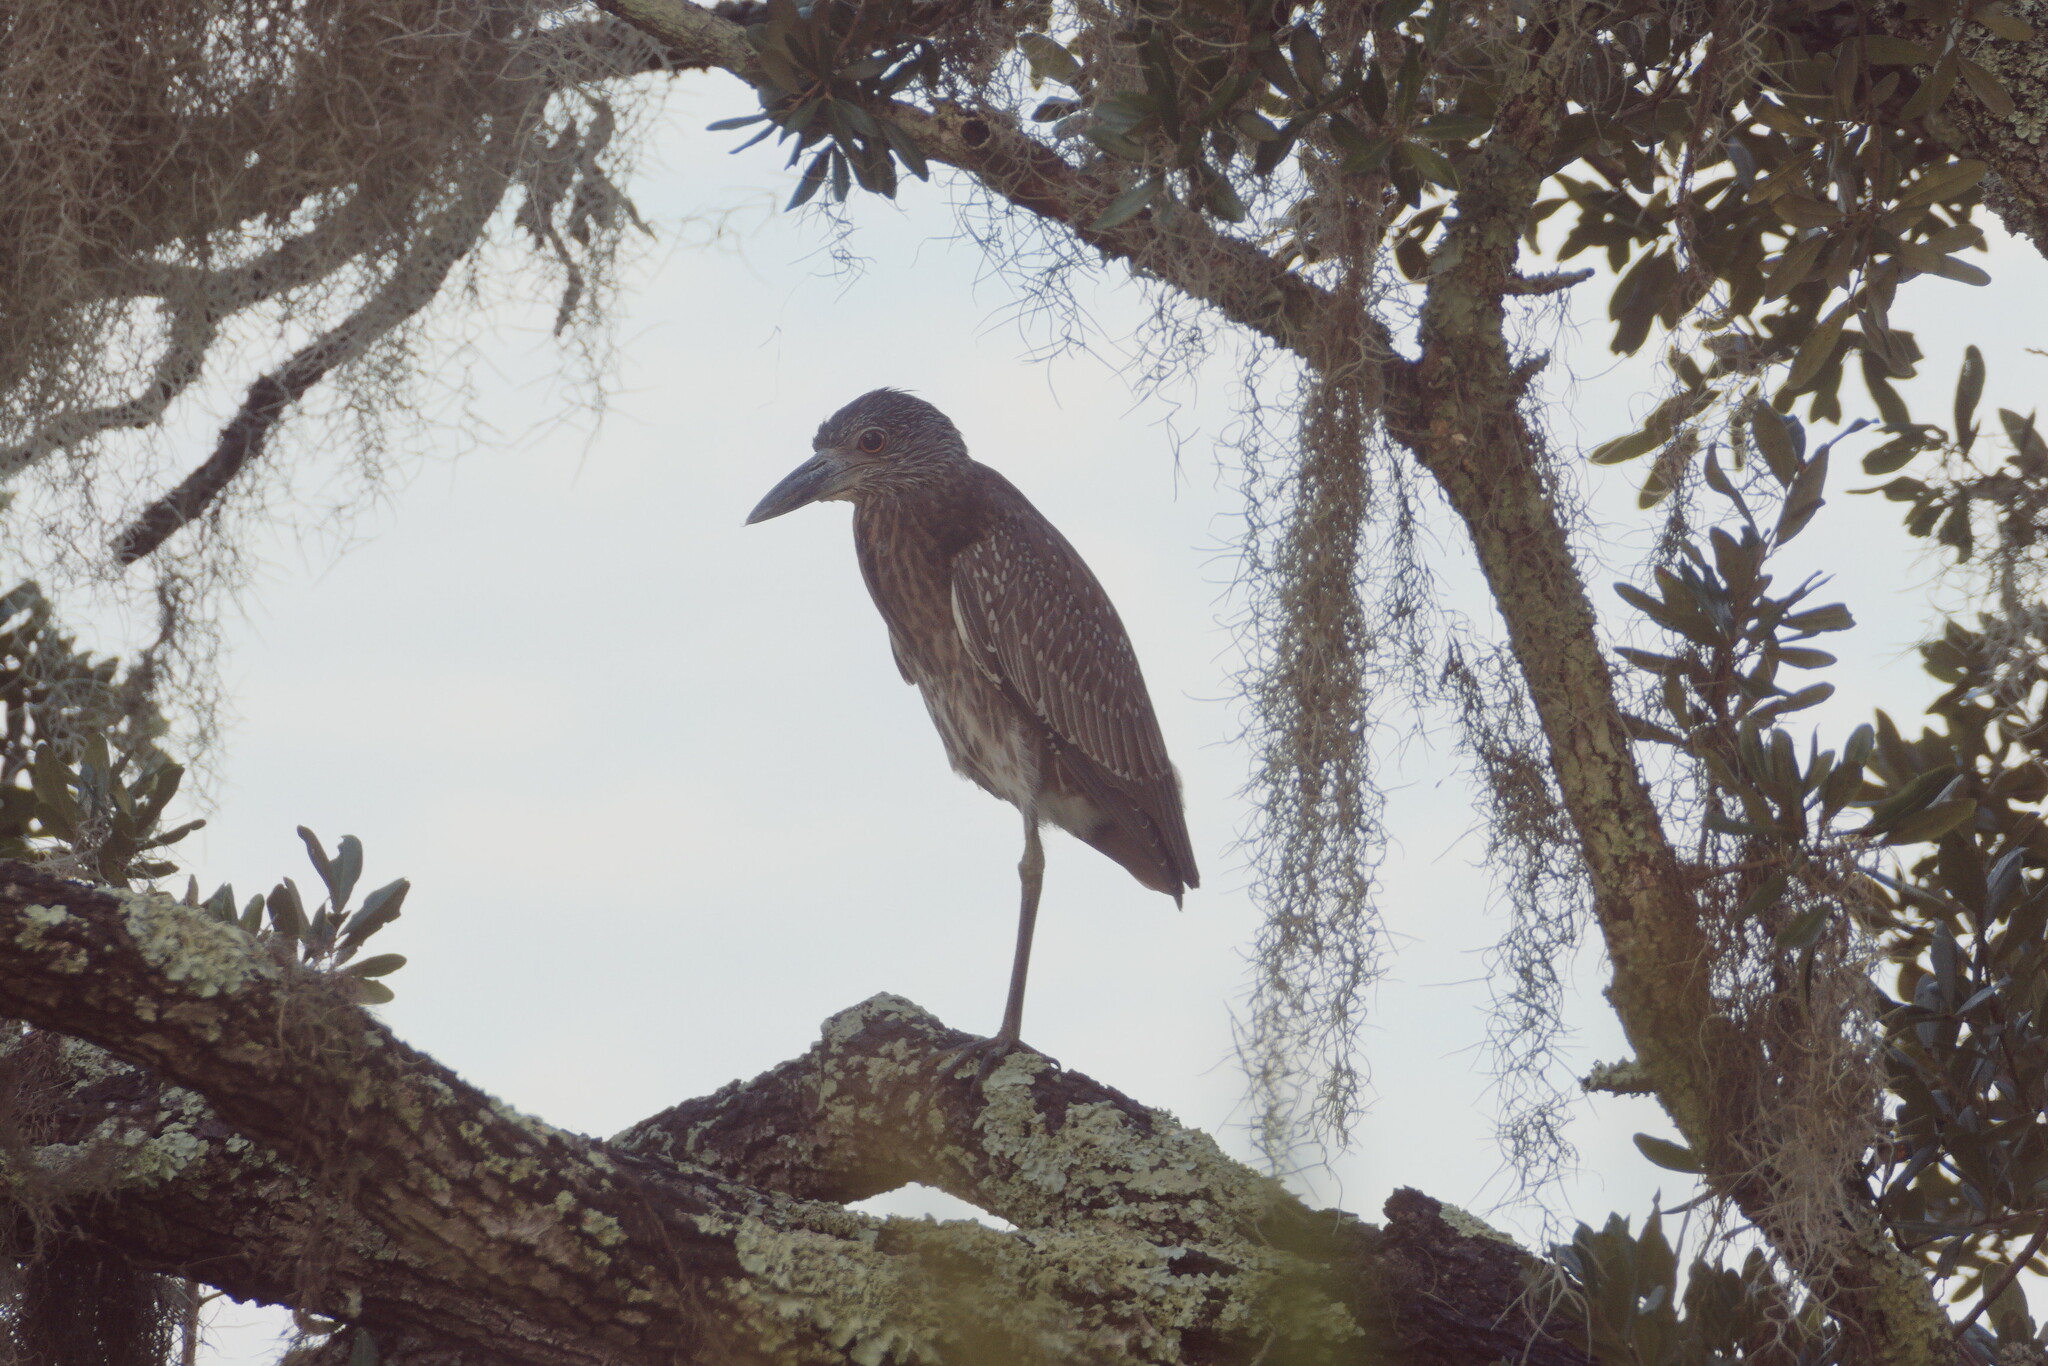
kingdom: Animalia
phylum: Chordata
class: Aves
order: Pelecaniformes
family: Ardeidae
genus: Nycticorax
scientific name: Nycticorax nycticorax
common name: Black-crowned night heron
